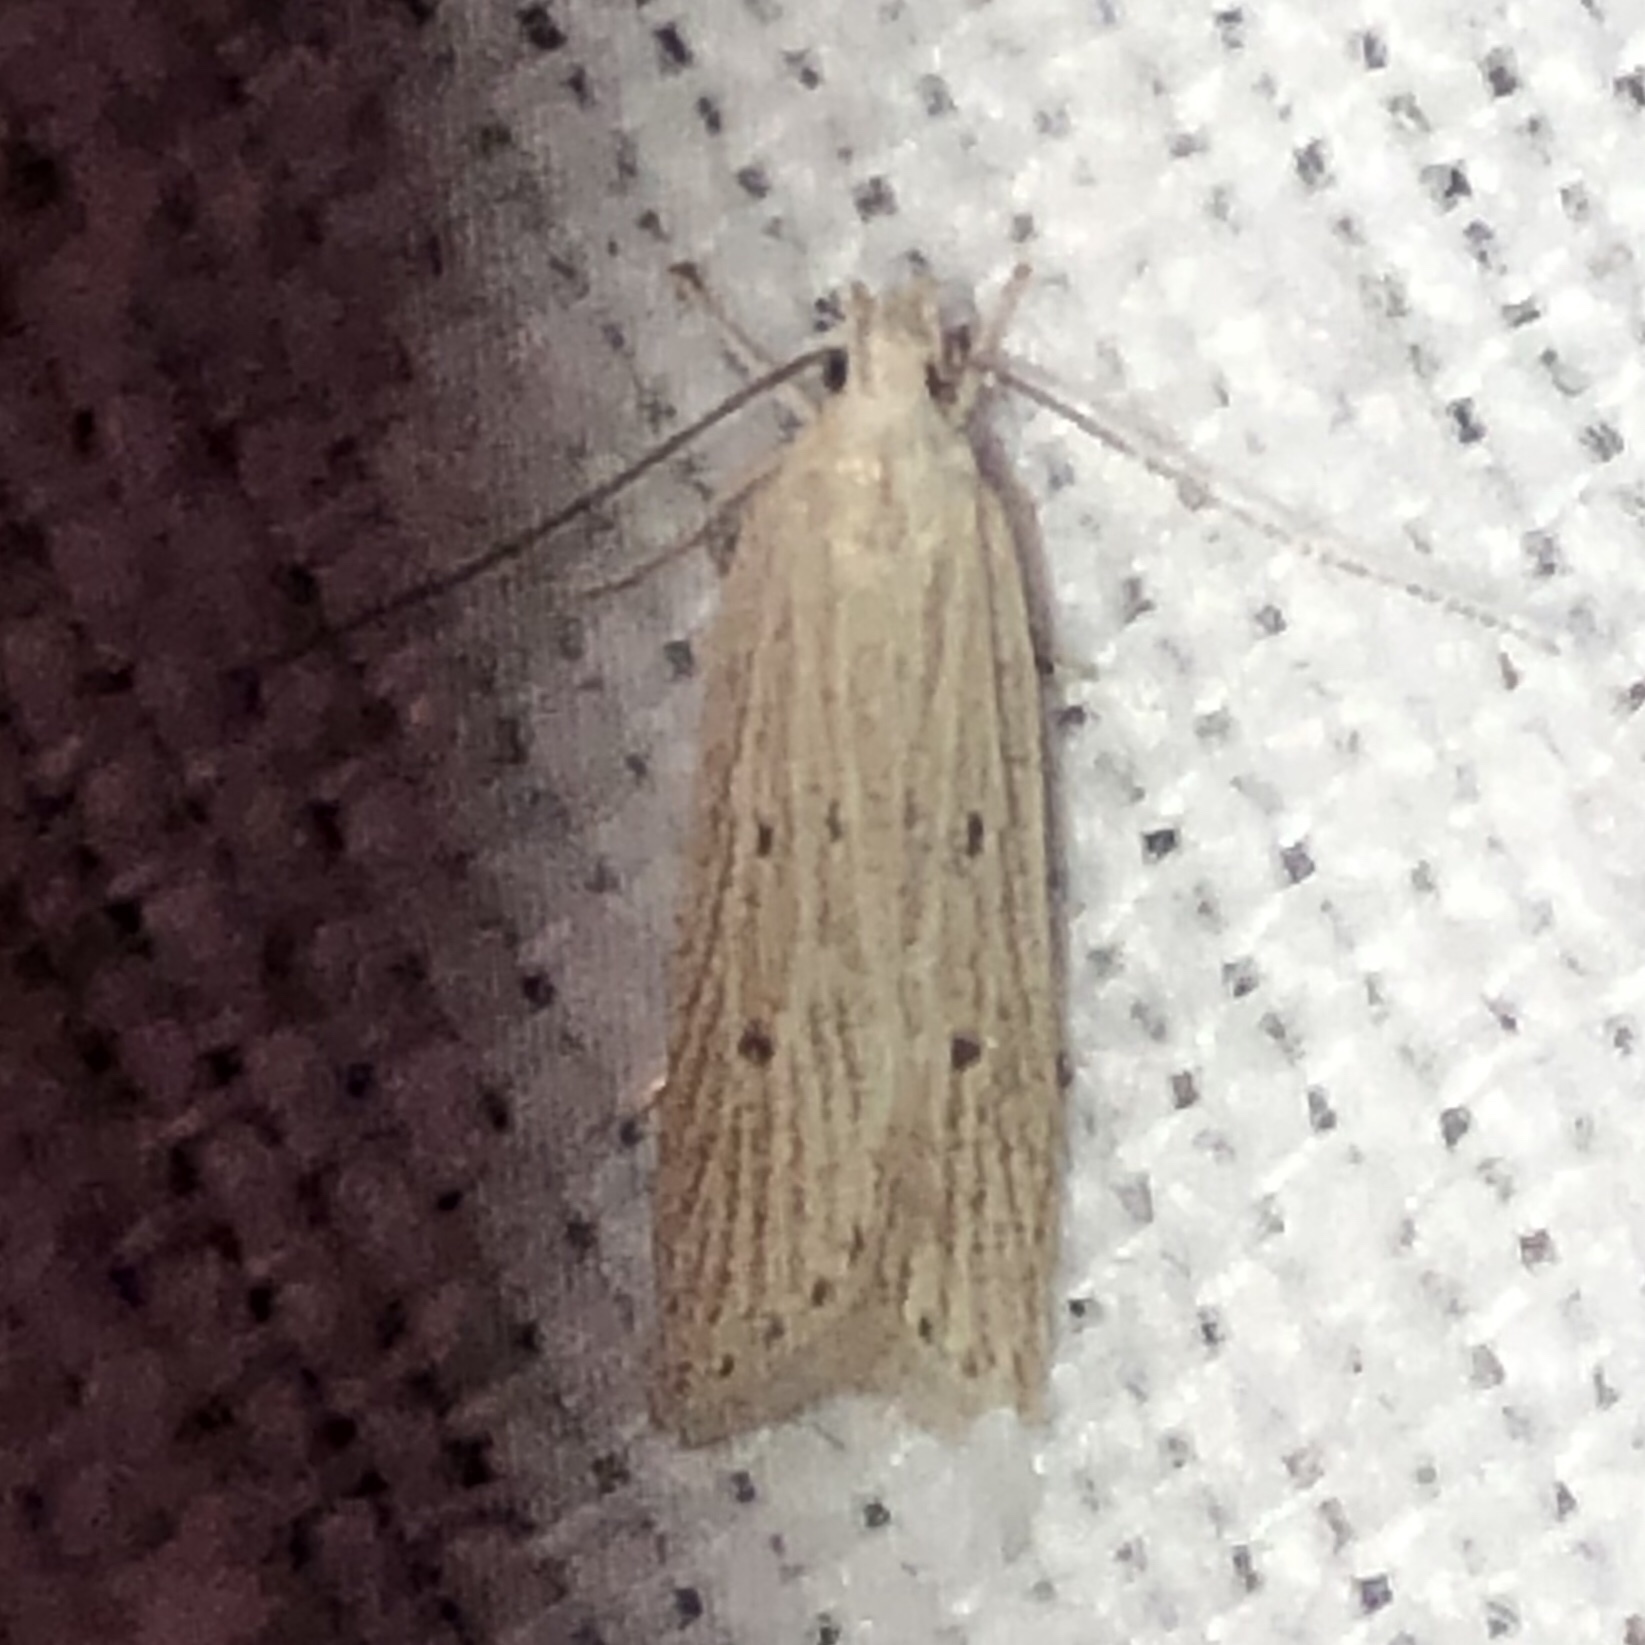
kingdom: Animalia
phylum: Arthropoda
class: Insecta
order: Lepidoptera
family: Gelechiidae
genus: Helcystogramma
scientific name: Helcystogramma fernaldella
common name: Fernald's helcystogramma moth
